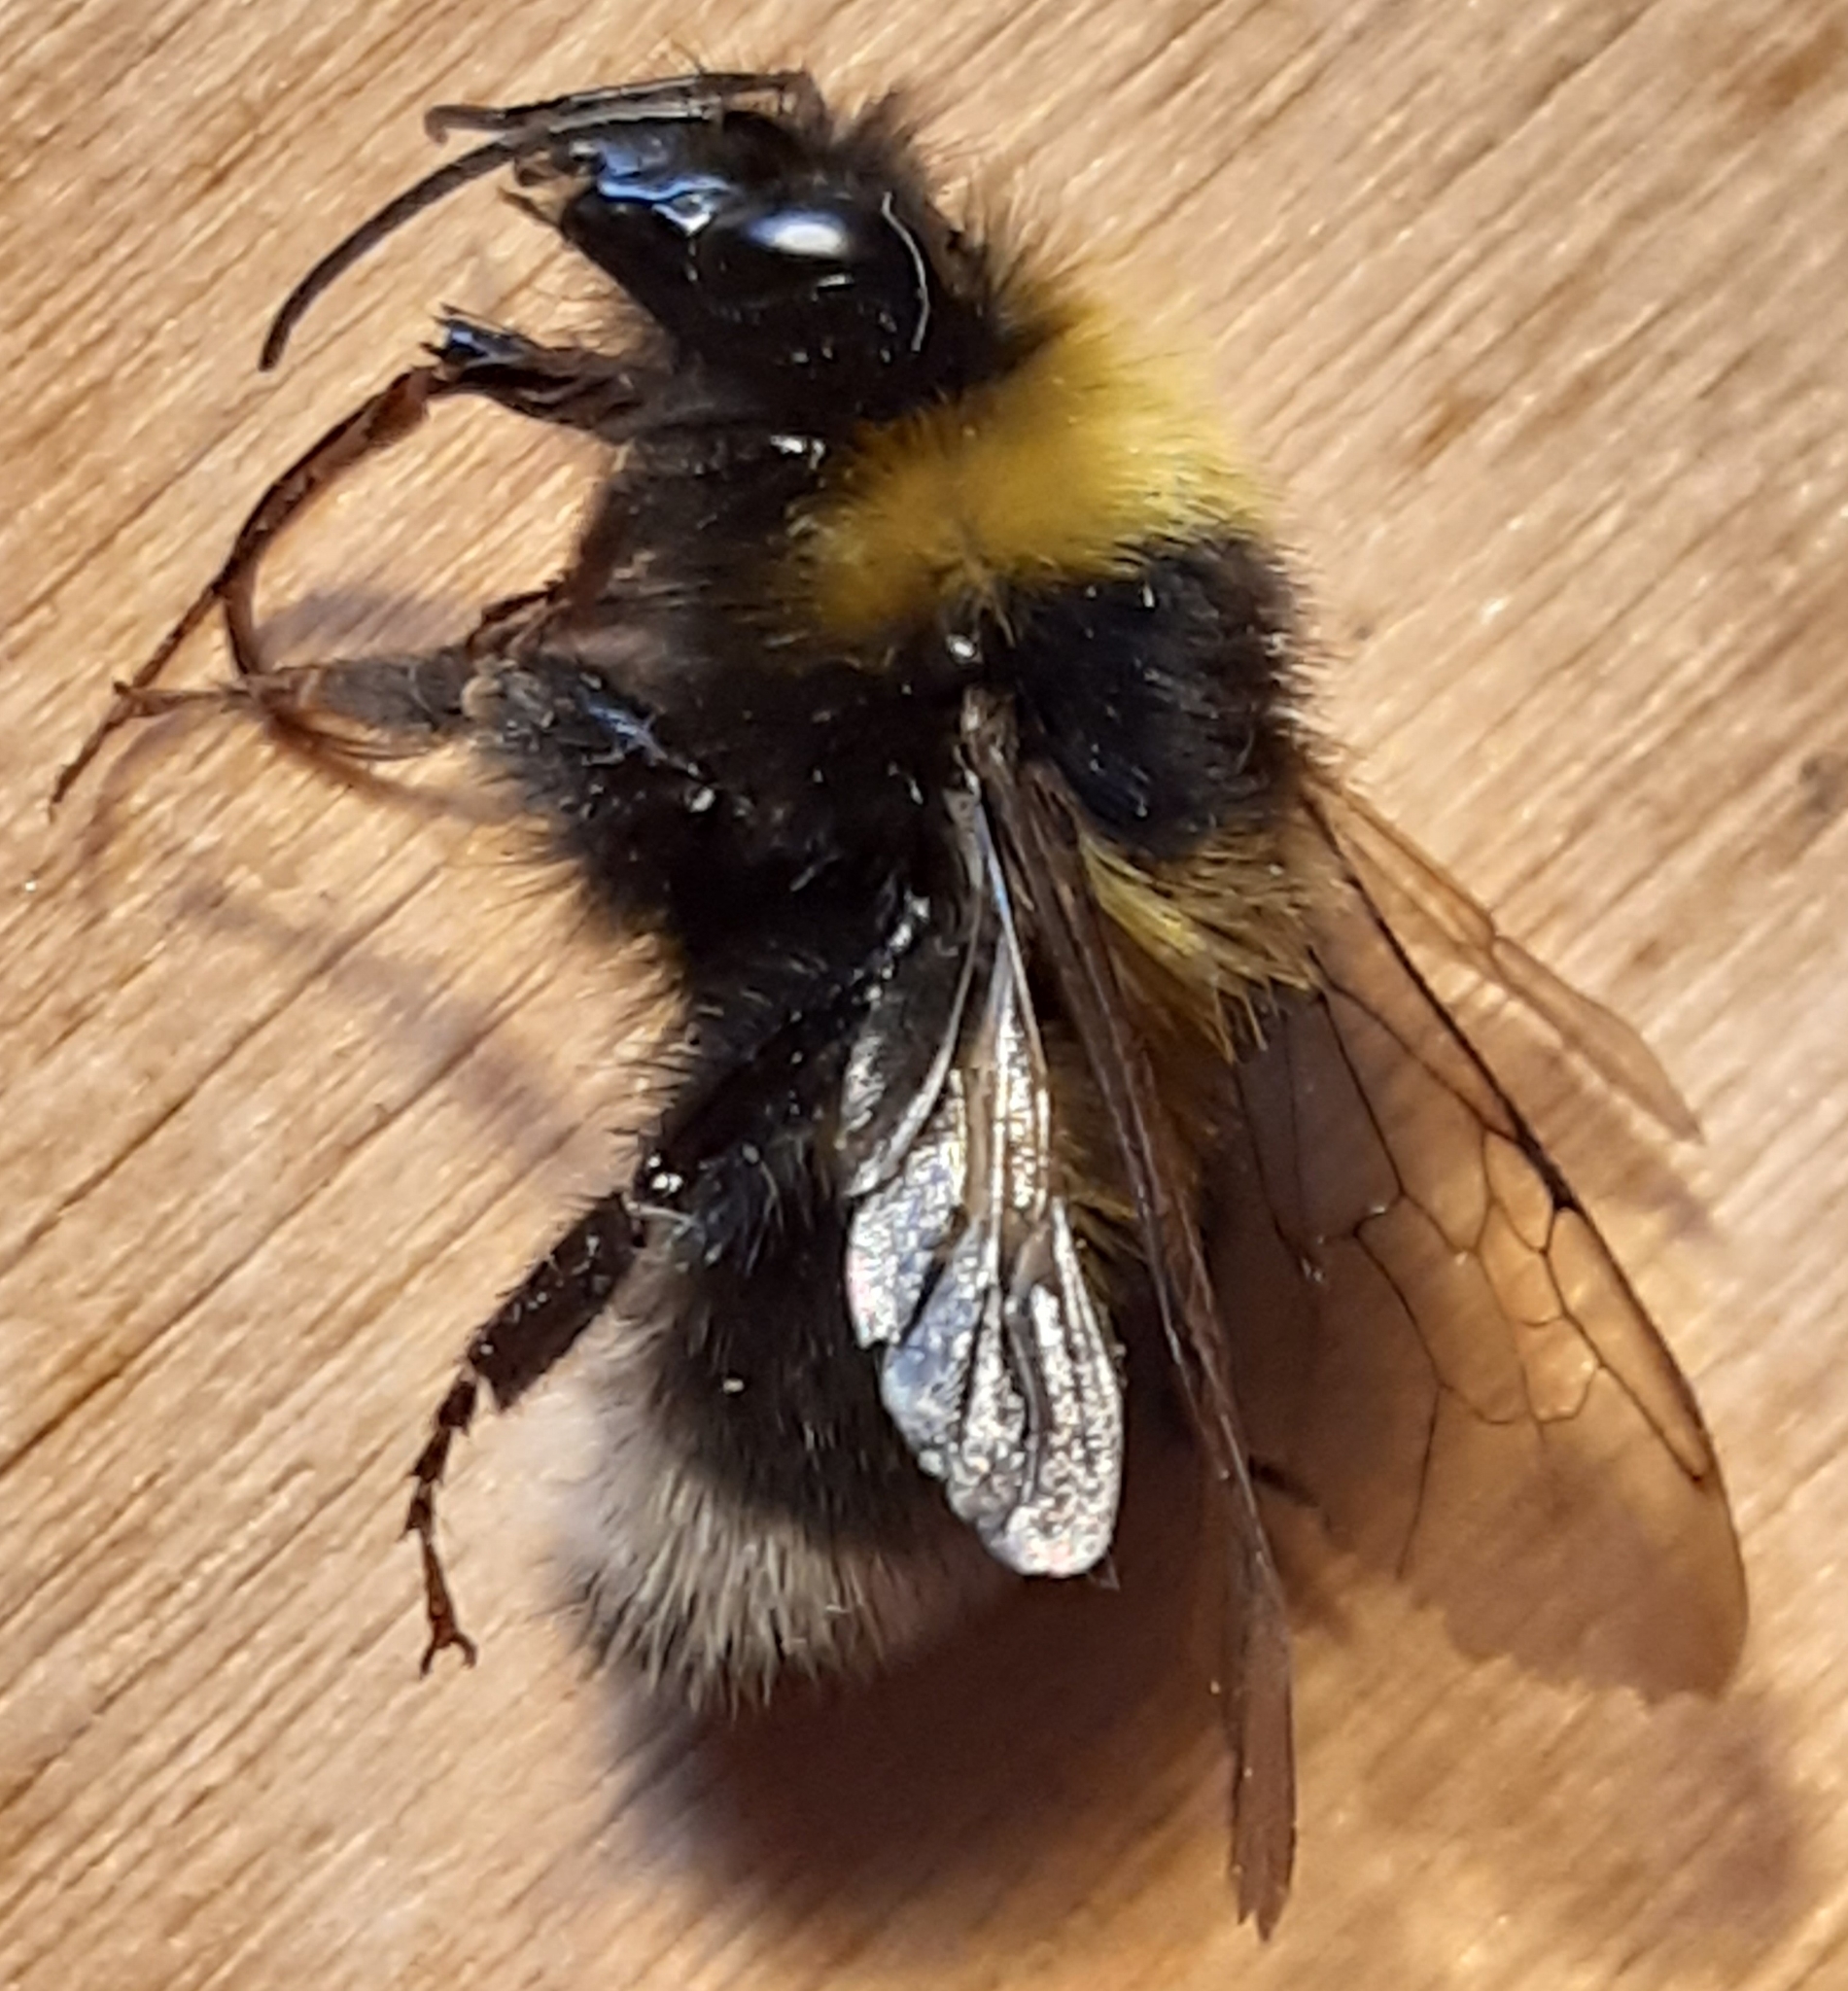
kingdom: Animalia
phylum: Arthropoda
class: Insecta
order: Hymenoptera
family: Apidae
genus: Bombus
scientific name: Bombus hortorum
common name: Garden bumblebee
